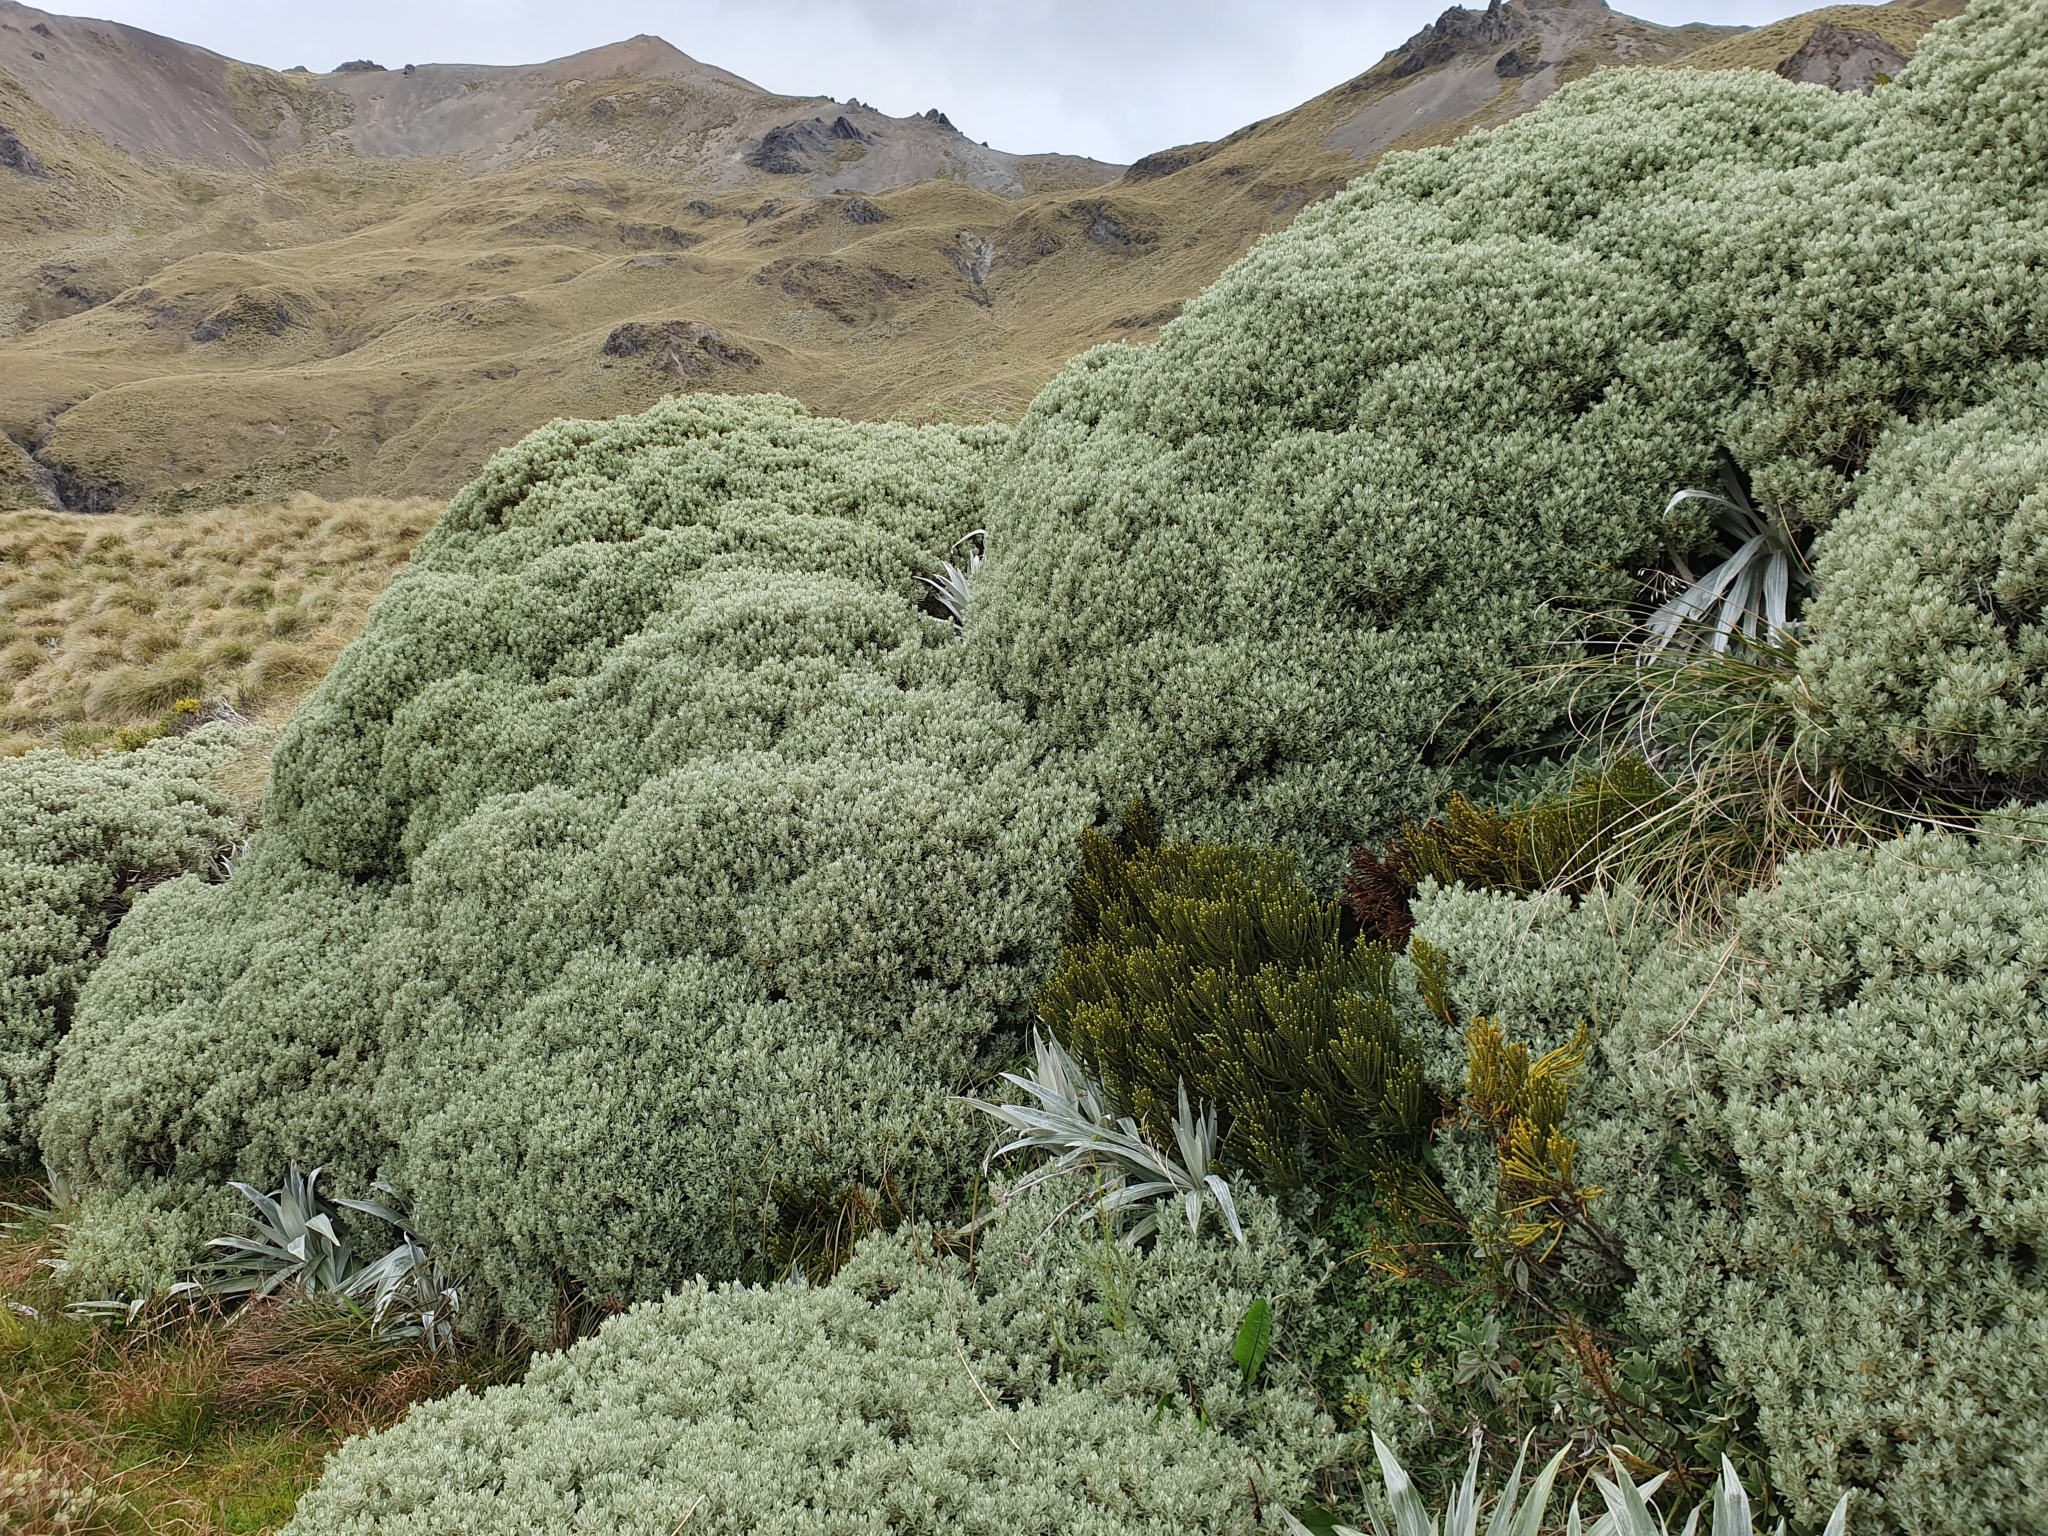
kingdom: Plantae
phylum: Tracheophyta
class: Magnoliopsida
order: Asterales
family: Asteraceae
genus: Olearia
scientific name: Olearia moschata
